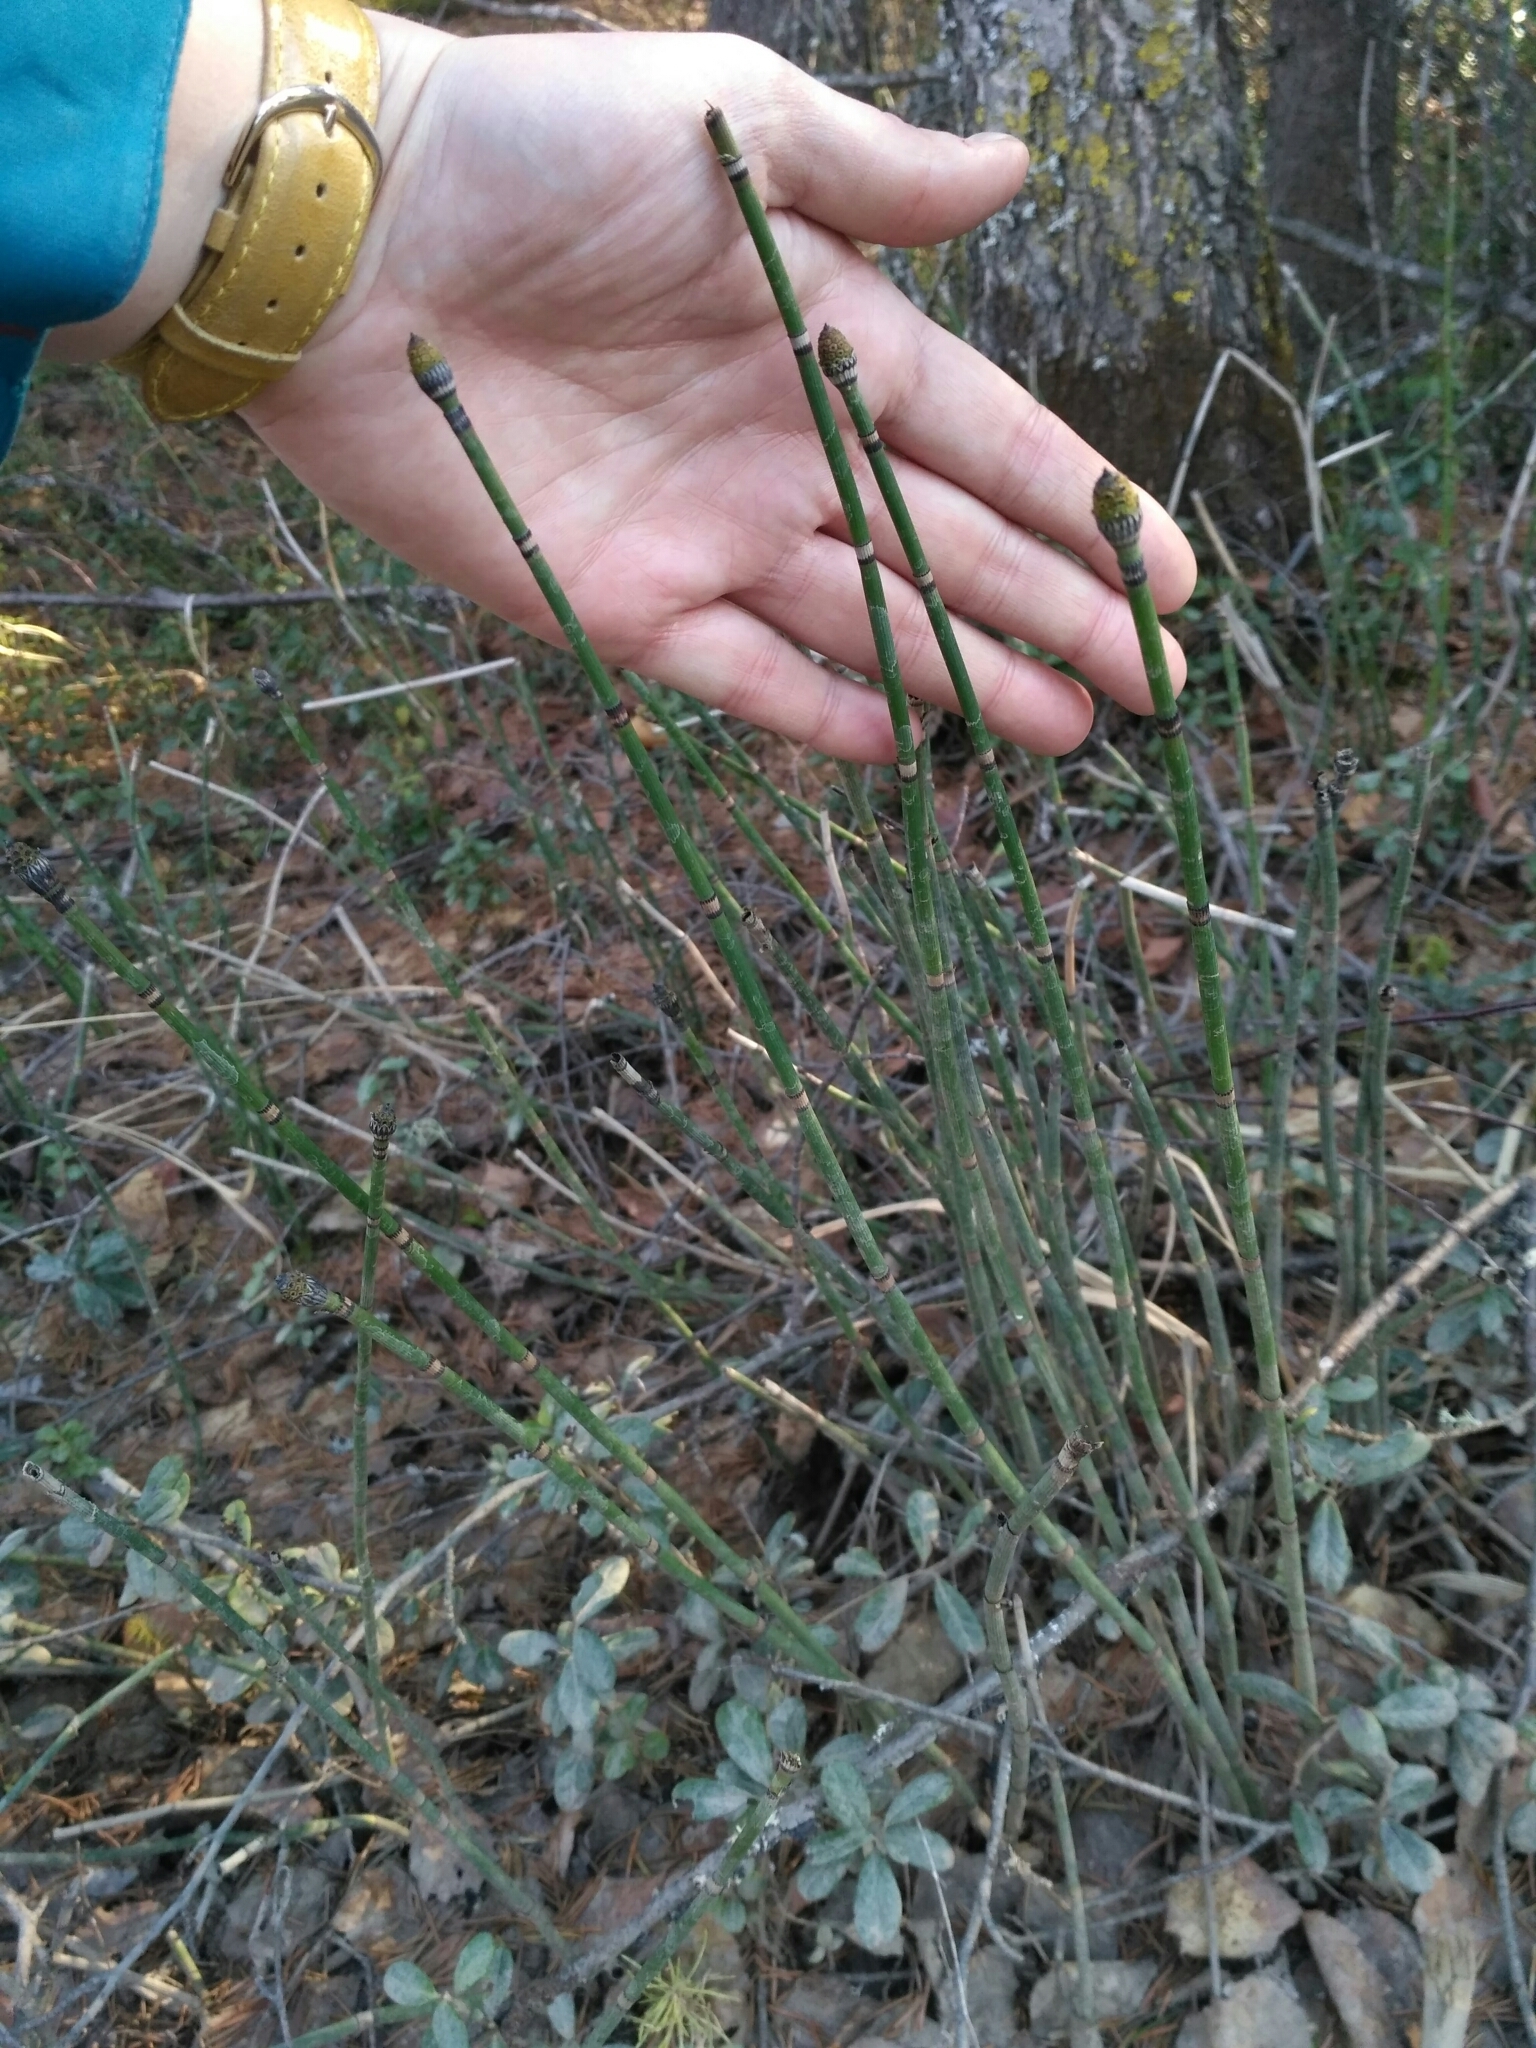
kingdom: Plantae
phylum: Tracheophyta
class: Polypodiopsida
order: Equisetales
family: Equisetaceae
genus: Equisetum
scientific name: Equisetum hyemale
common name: Rough horsetail
